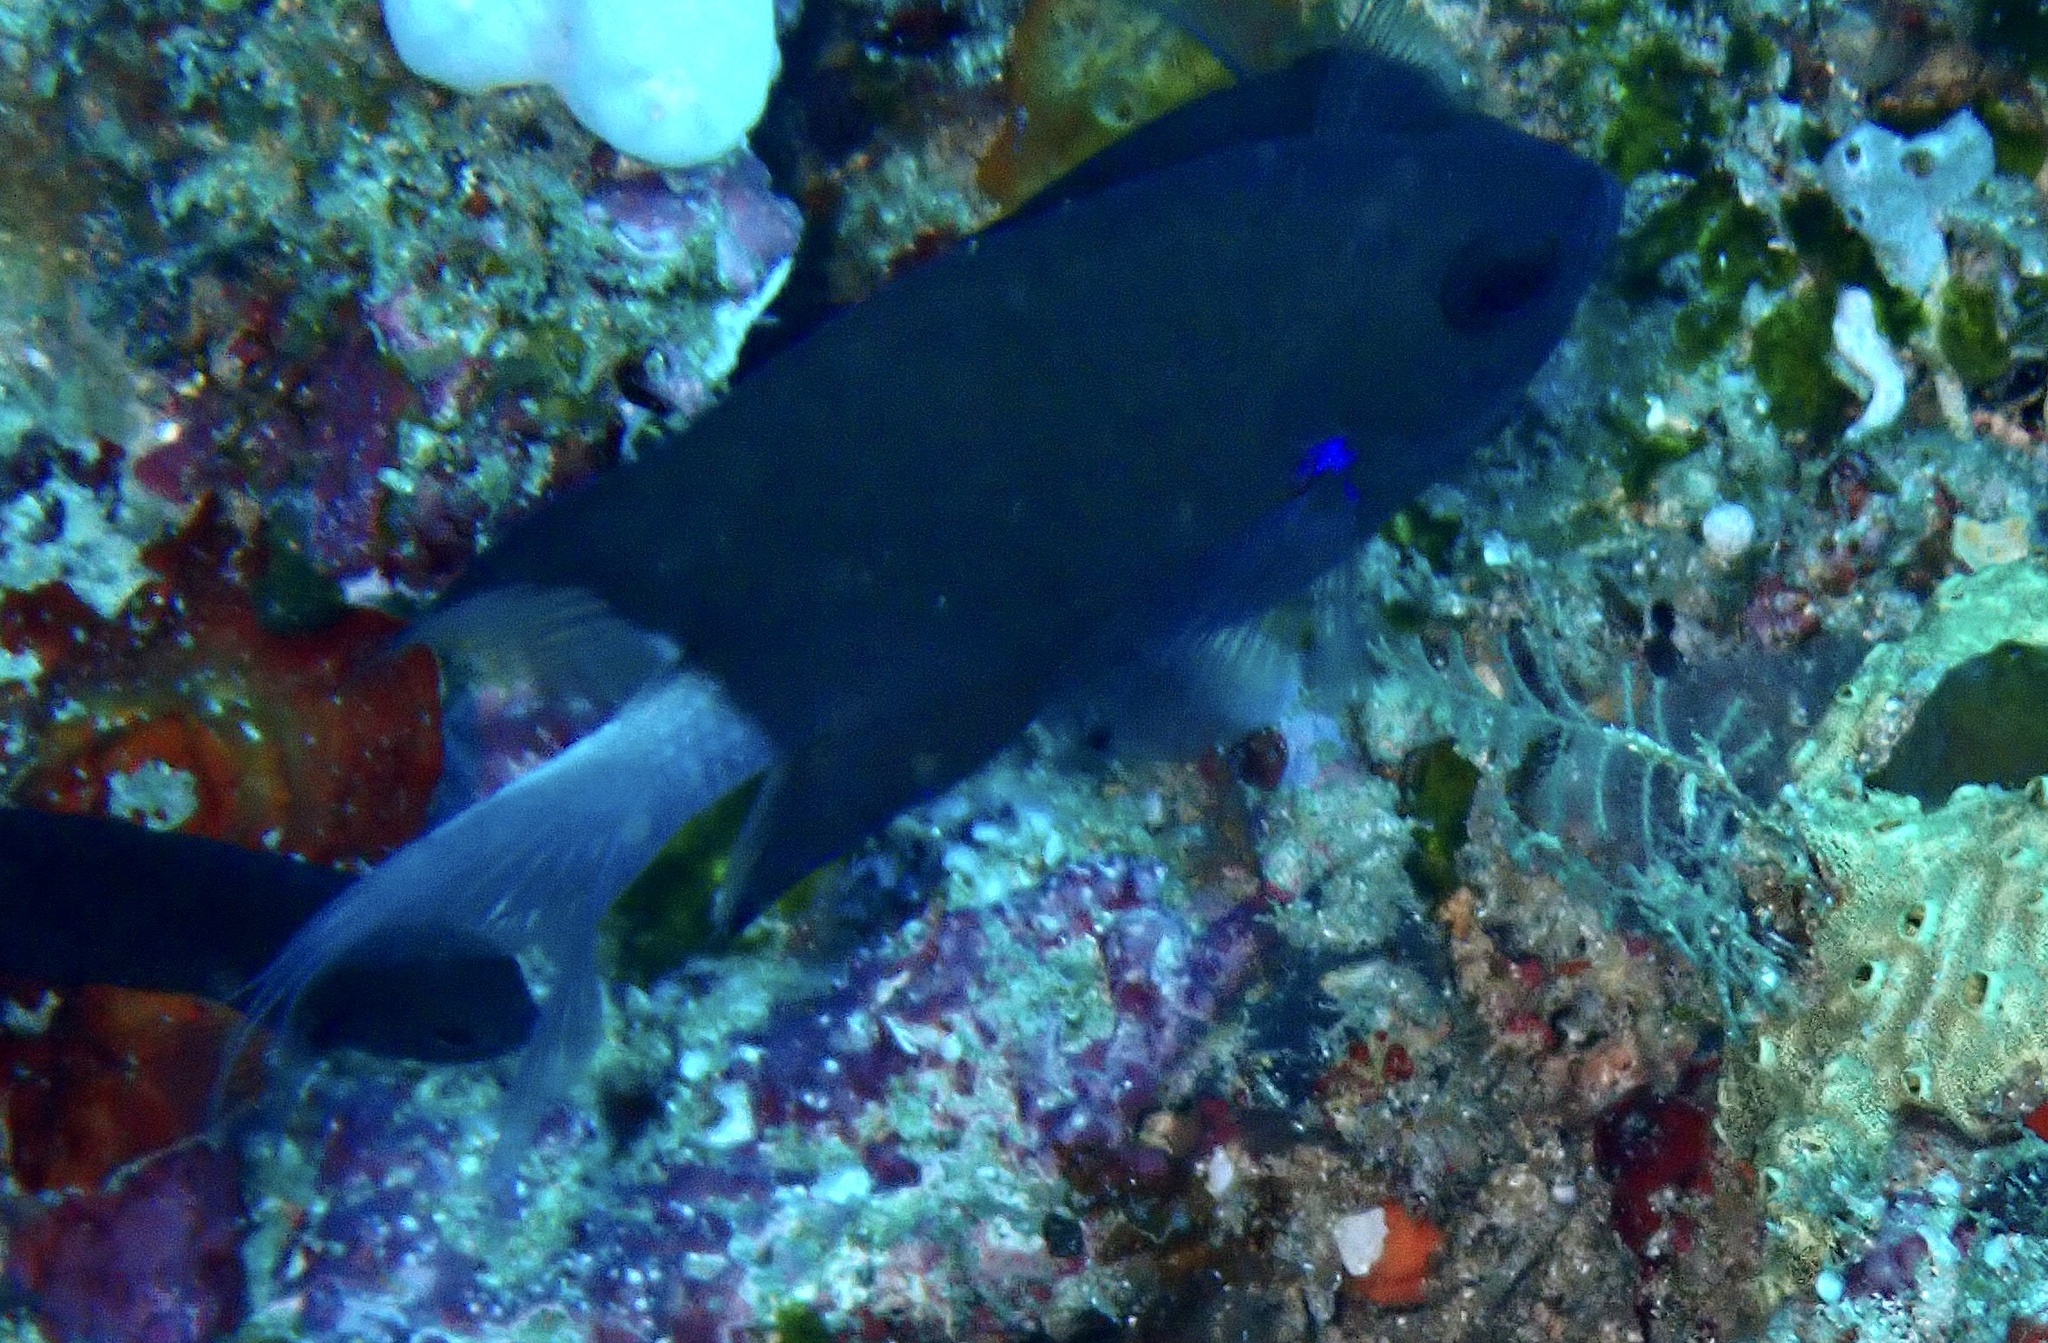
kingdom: Animalia
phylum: Chordata
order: Perciformes
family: Pomacentridae
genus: Chromis
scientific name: Chromis caudalis
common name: Blue-axil chromis
